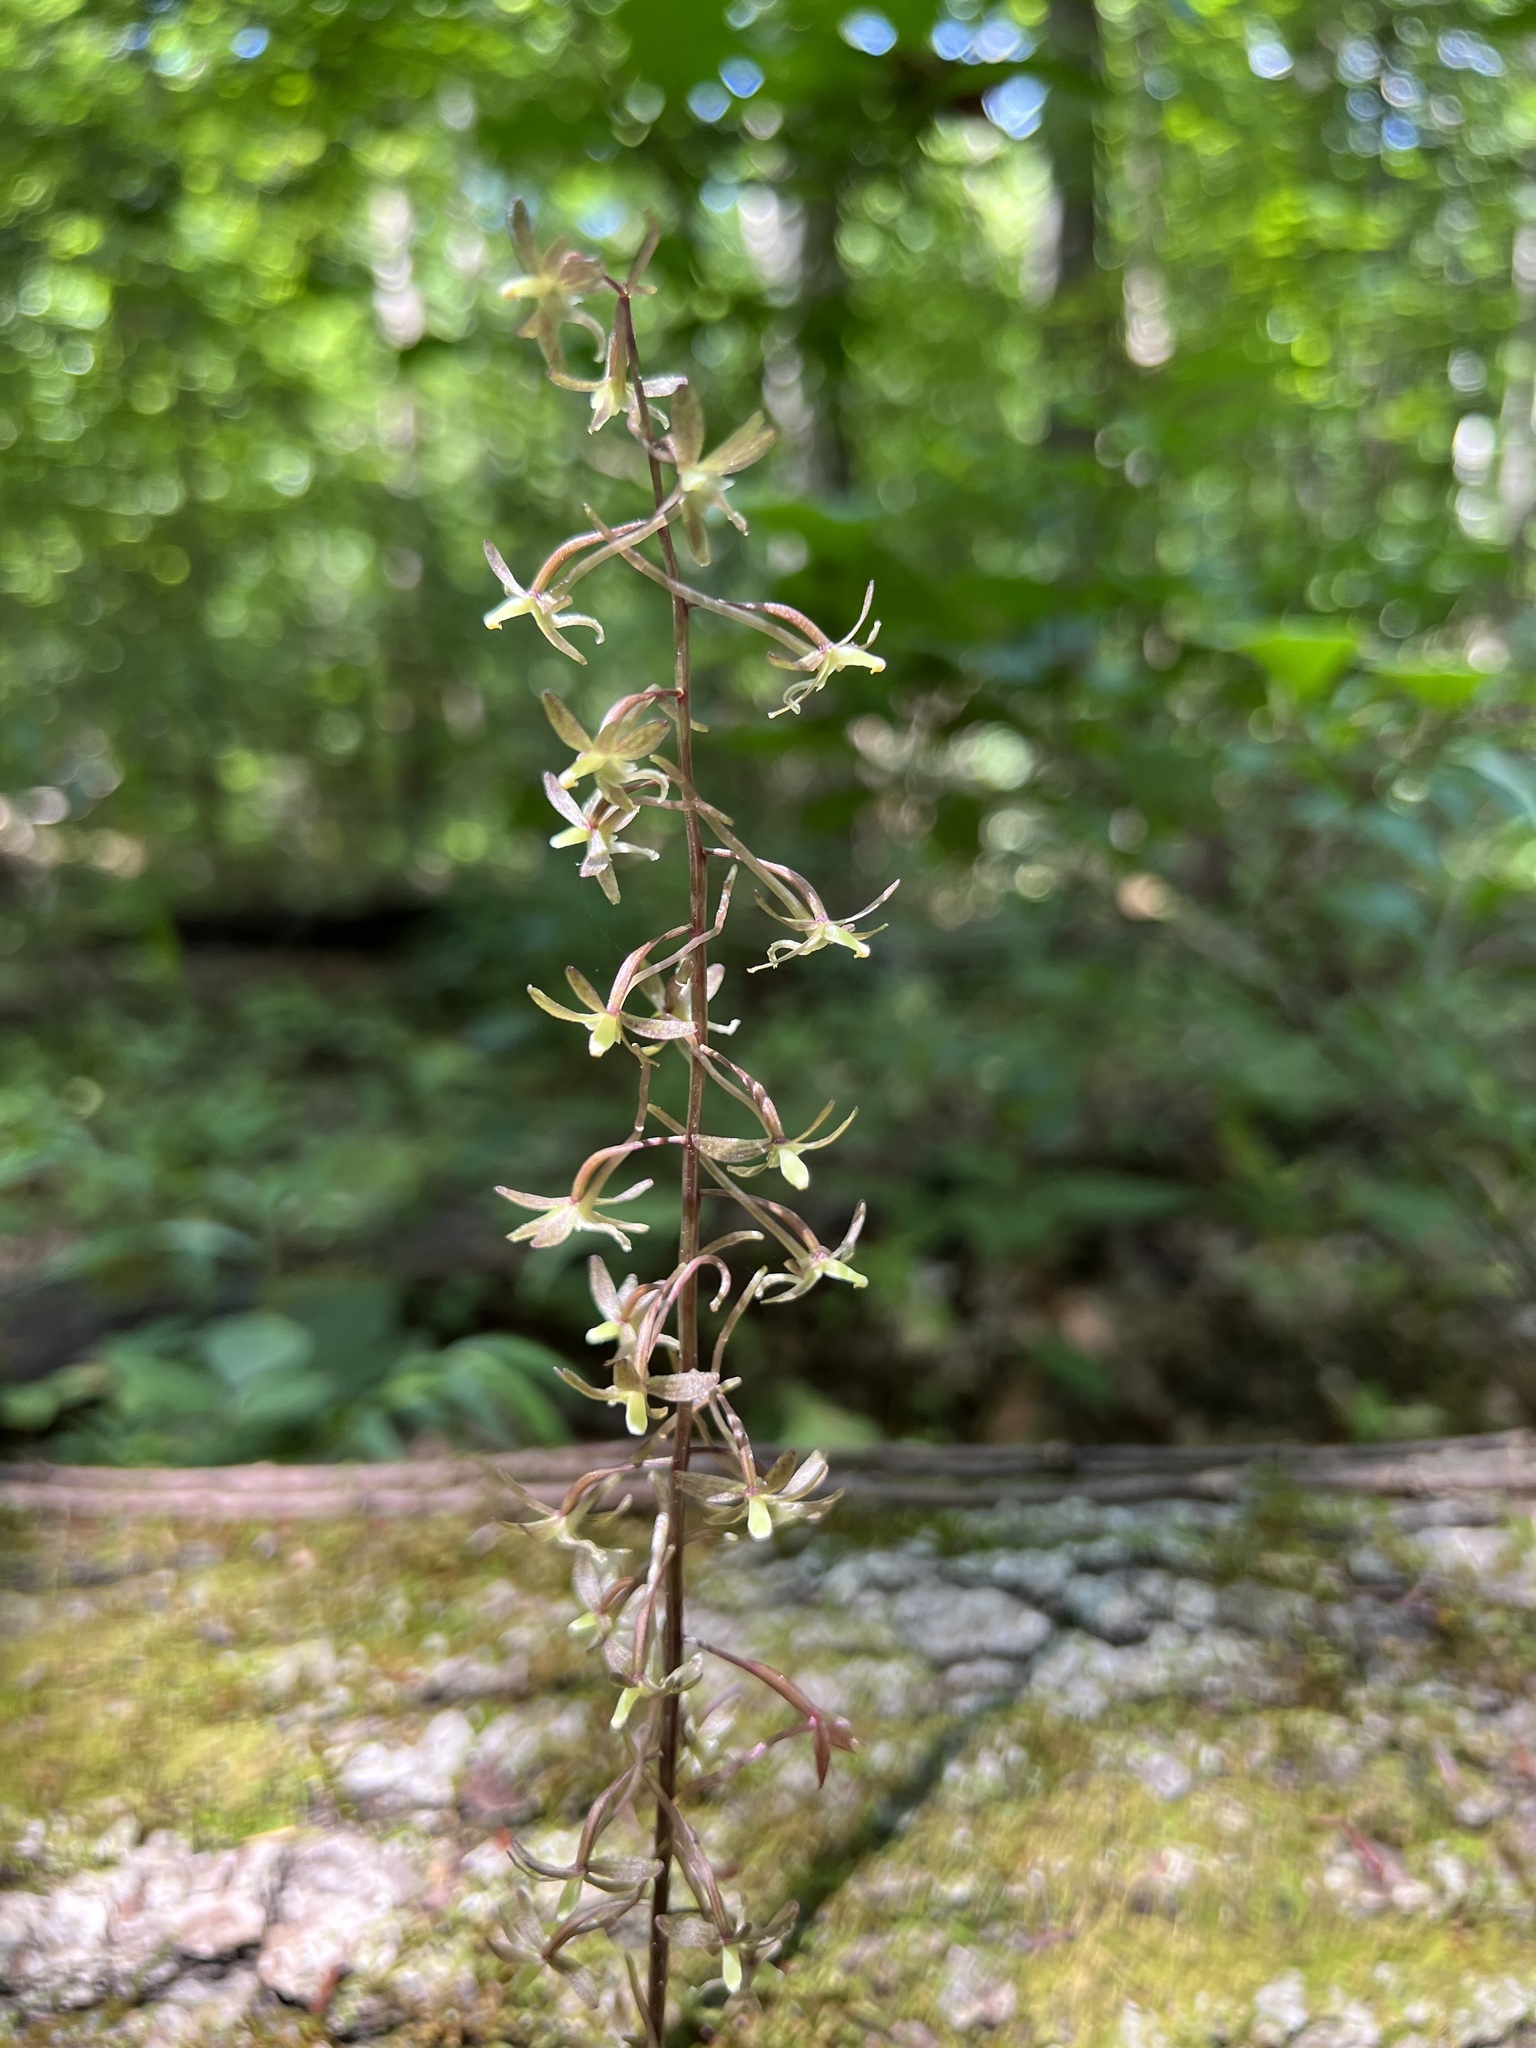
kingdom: Plantae
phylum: Tracheophyta
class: Liliopsida
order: Asparagales
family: Orchidaceae
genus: Tipularia
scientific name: Tipularia discolor
